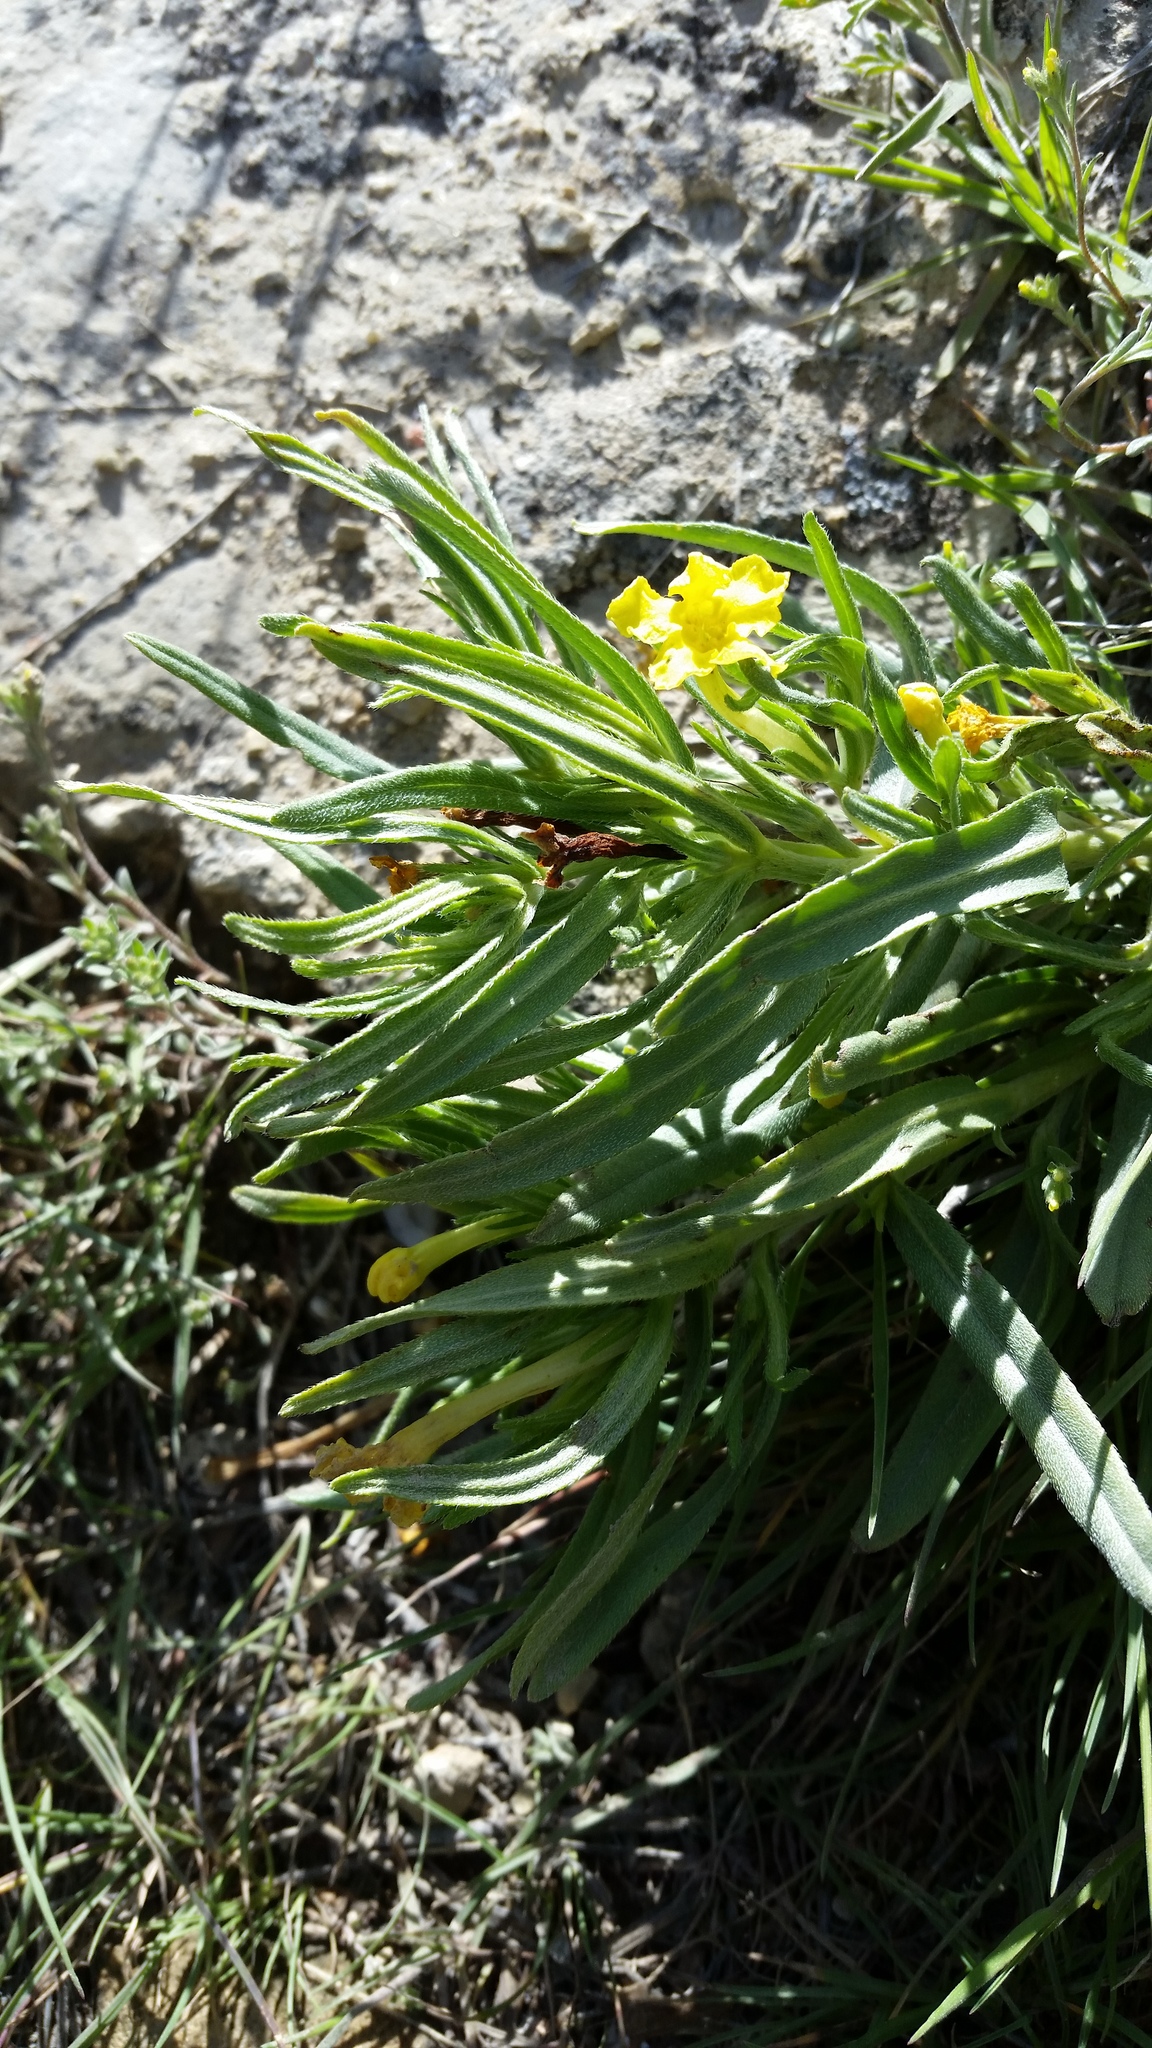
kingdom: Plantae
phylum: Tracheophyta
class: Magnoliopsida
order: Boraginales
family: Boraginaceae
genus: Lithospermum
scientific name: Lithospermum incisum
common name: Fringed gromwell
